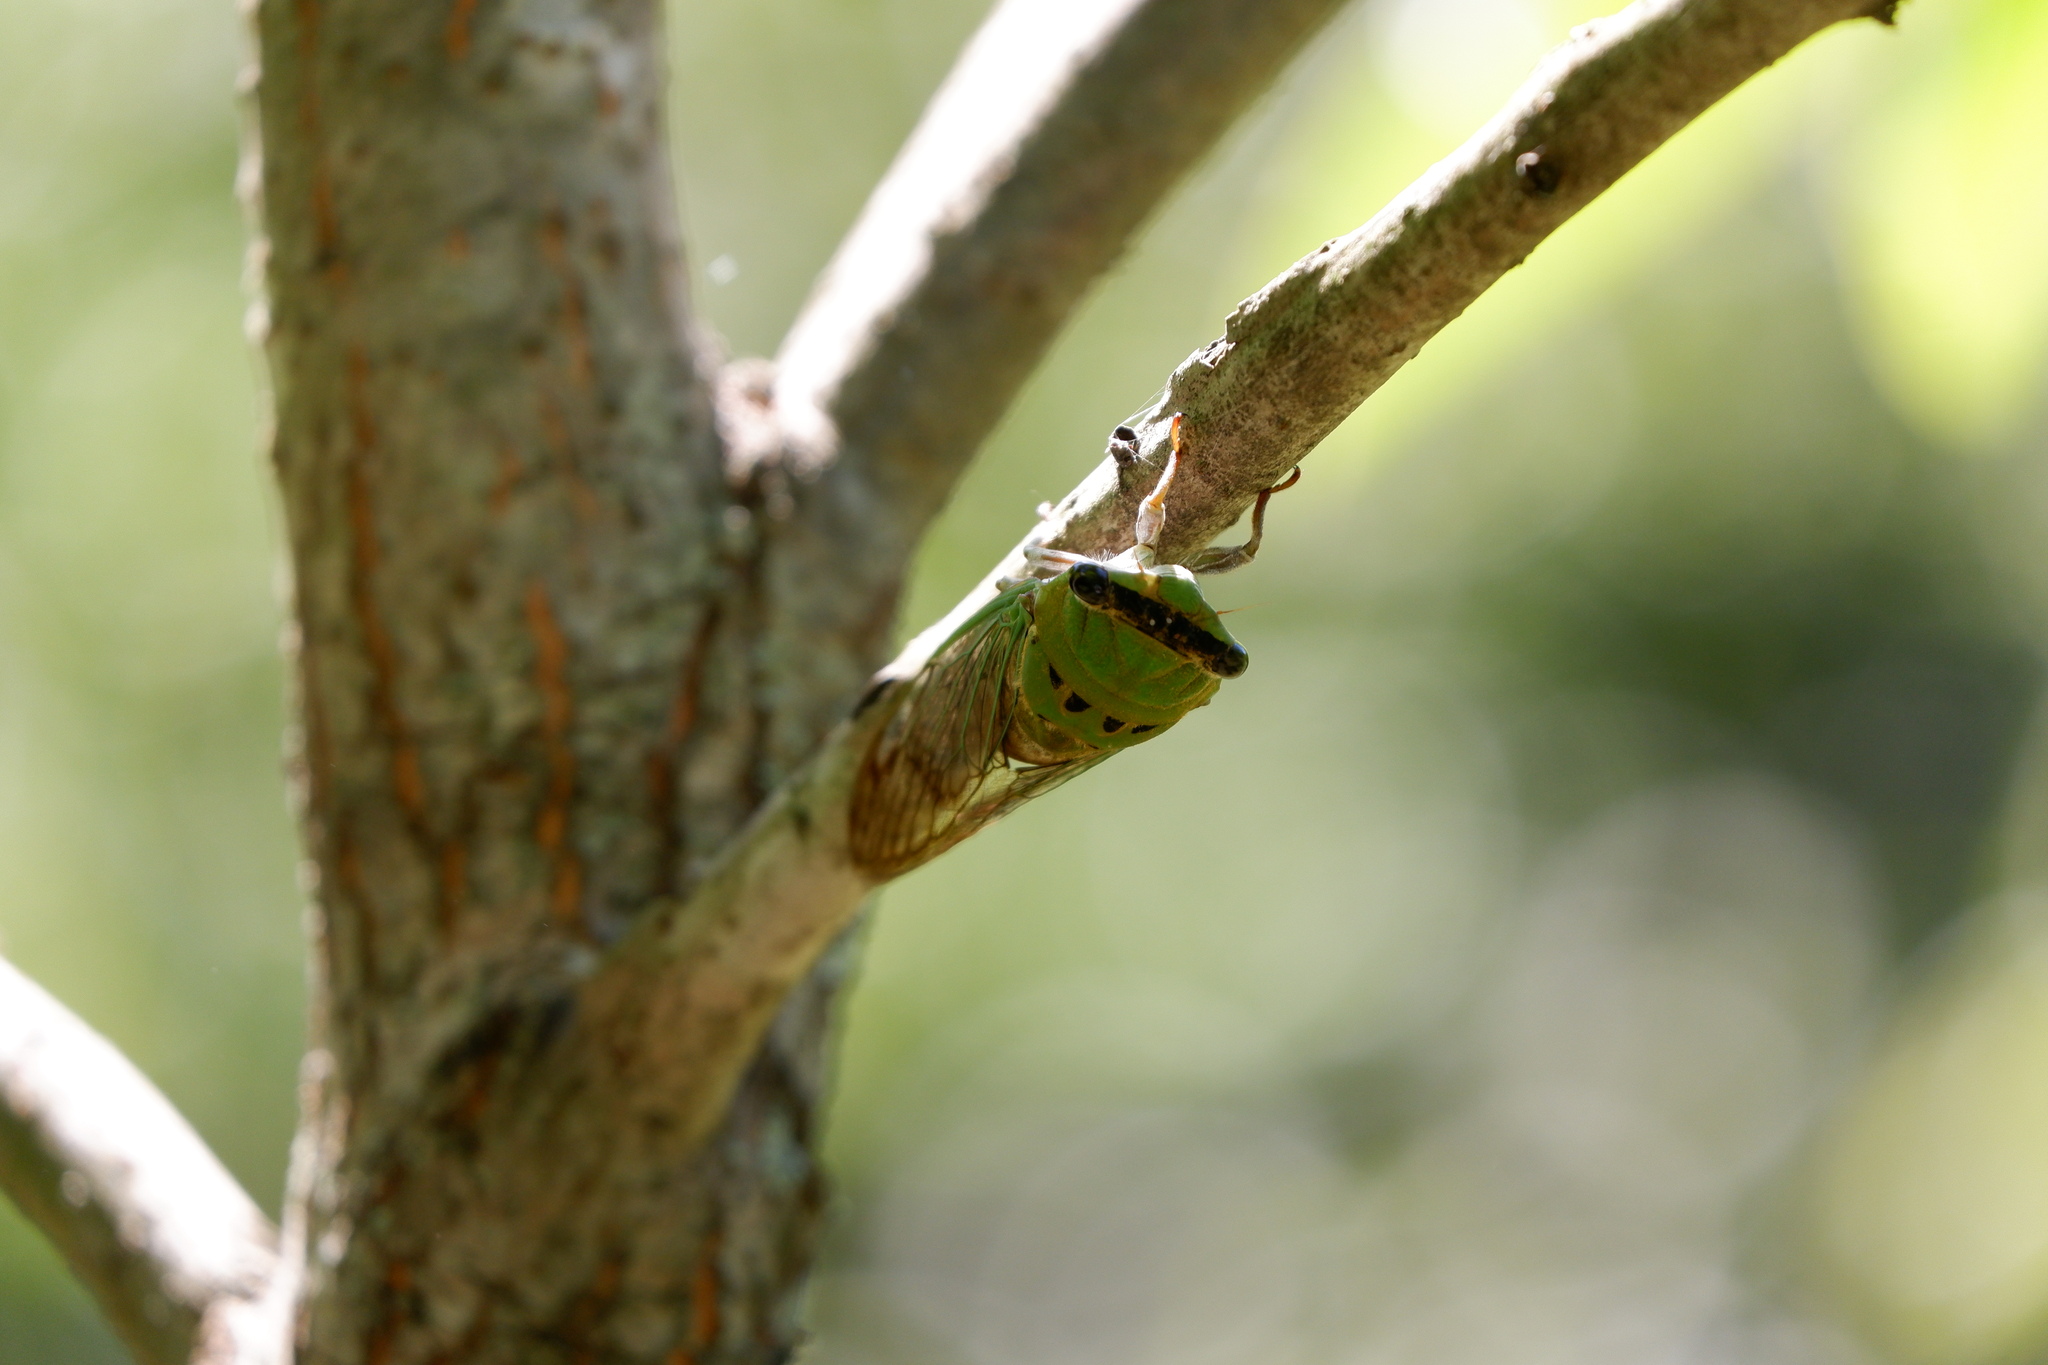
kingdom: Animalia
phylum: Arthropoda
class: Insecta
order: Hemiptera
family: Cicadidae
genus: Neotibicen
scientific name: Neotibicen superbus
